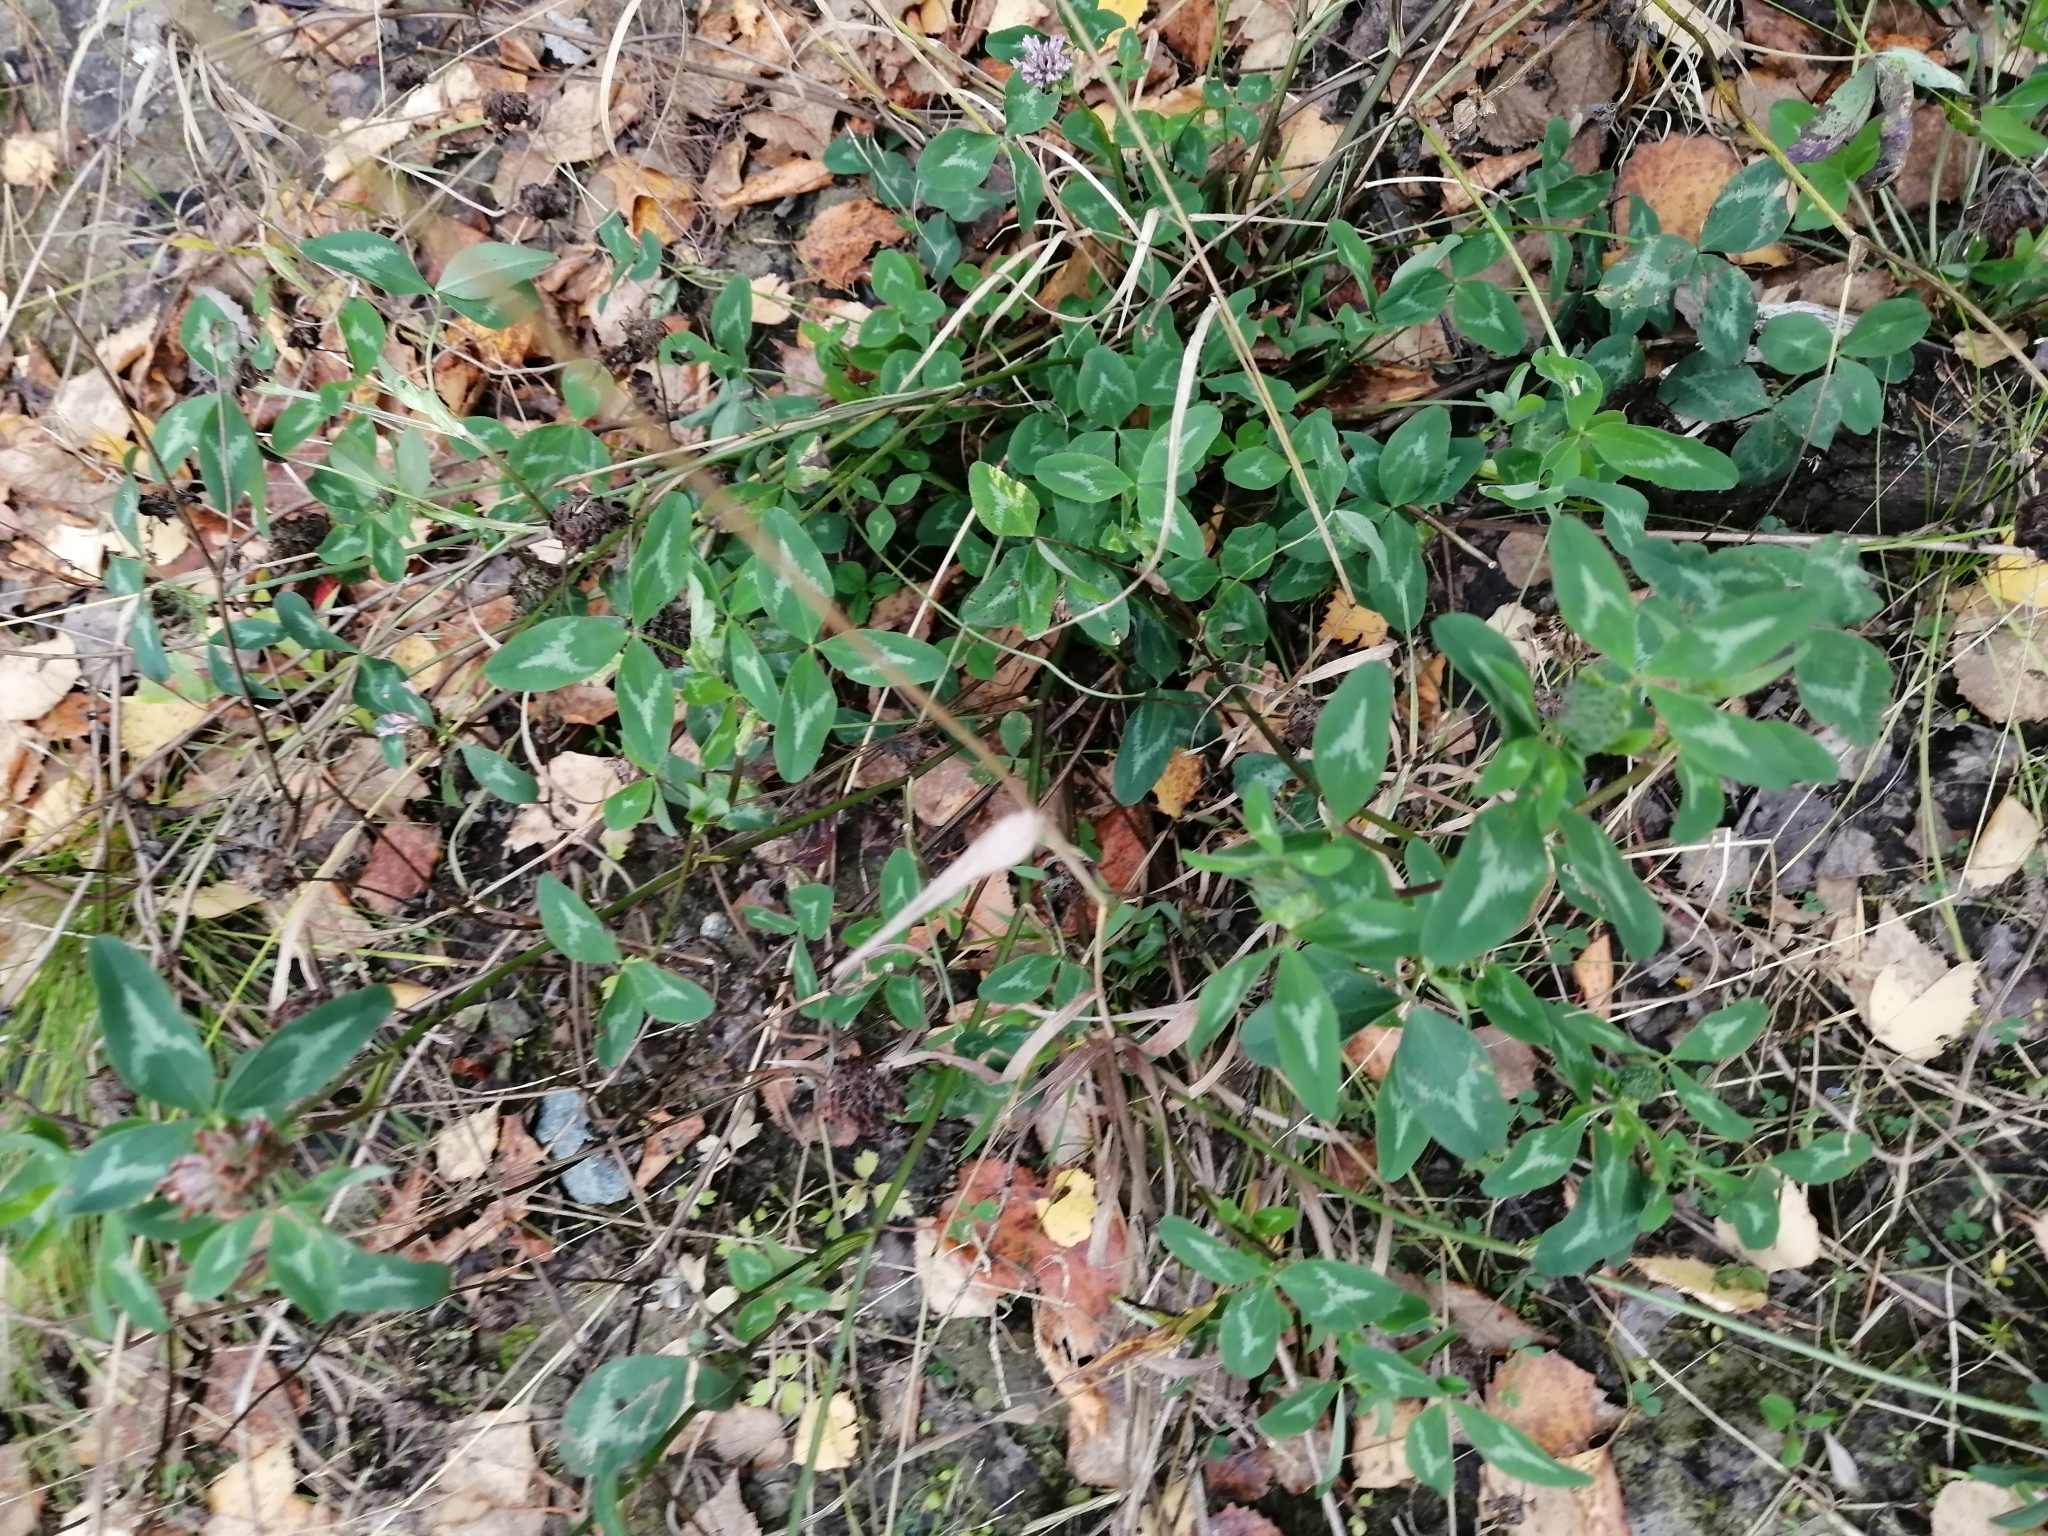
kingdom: Plantae
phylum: Tracheophyta
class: Magnoliopsida
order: Fabales
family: Fabaceae
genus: Trifolium
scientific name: Trifolium pratense
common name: Red clover
